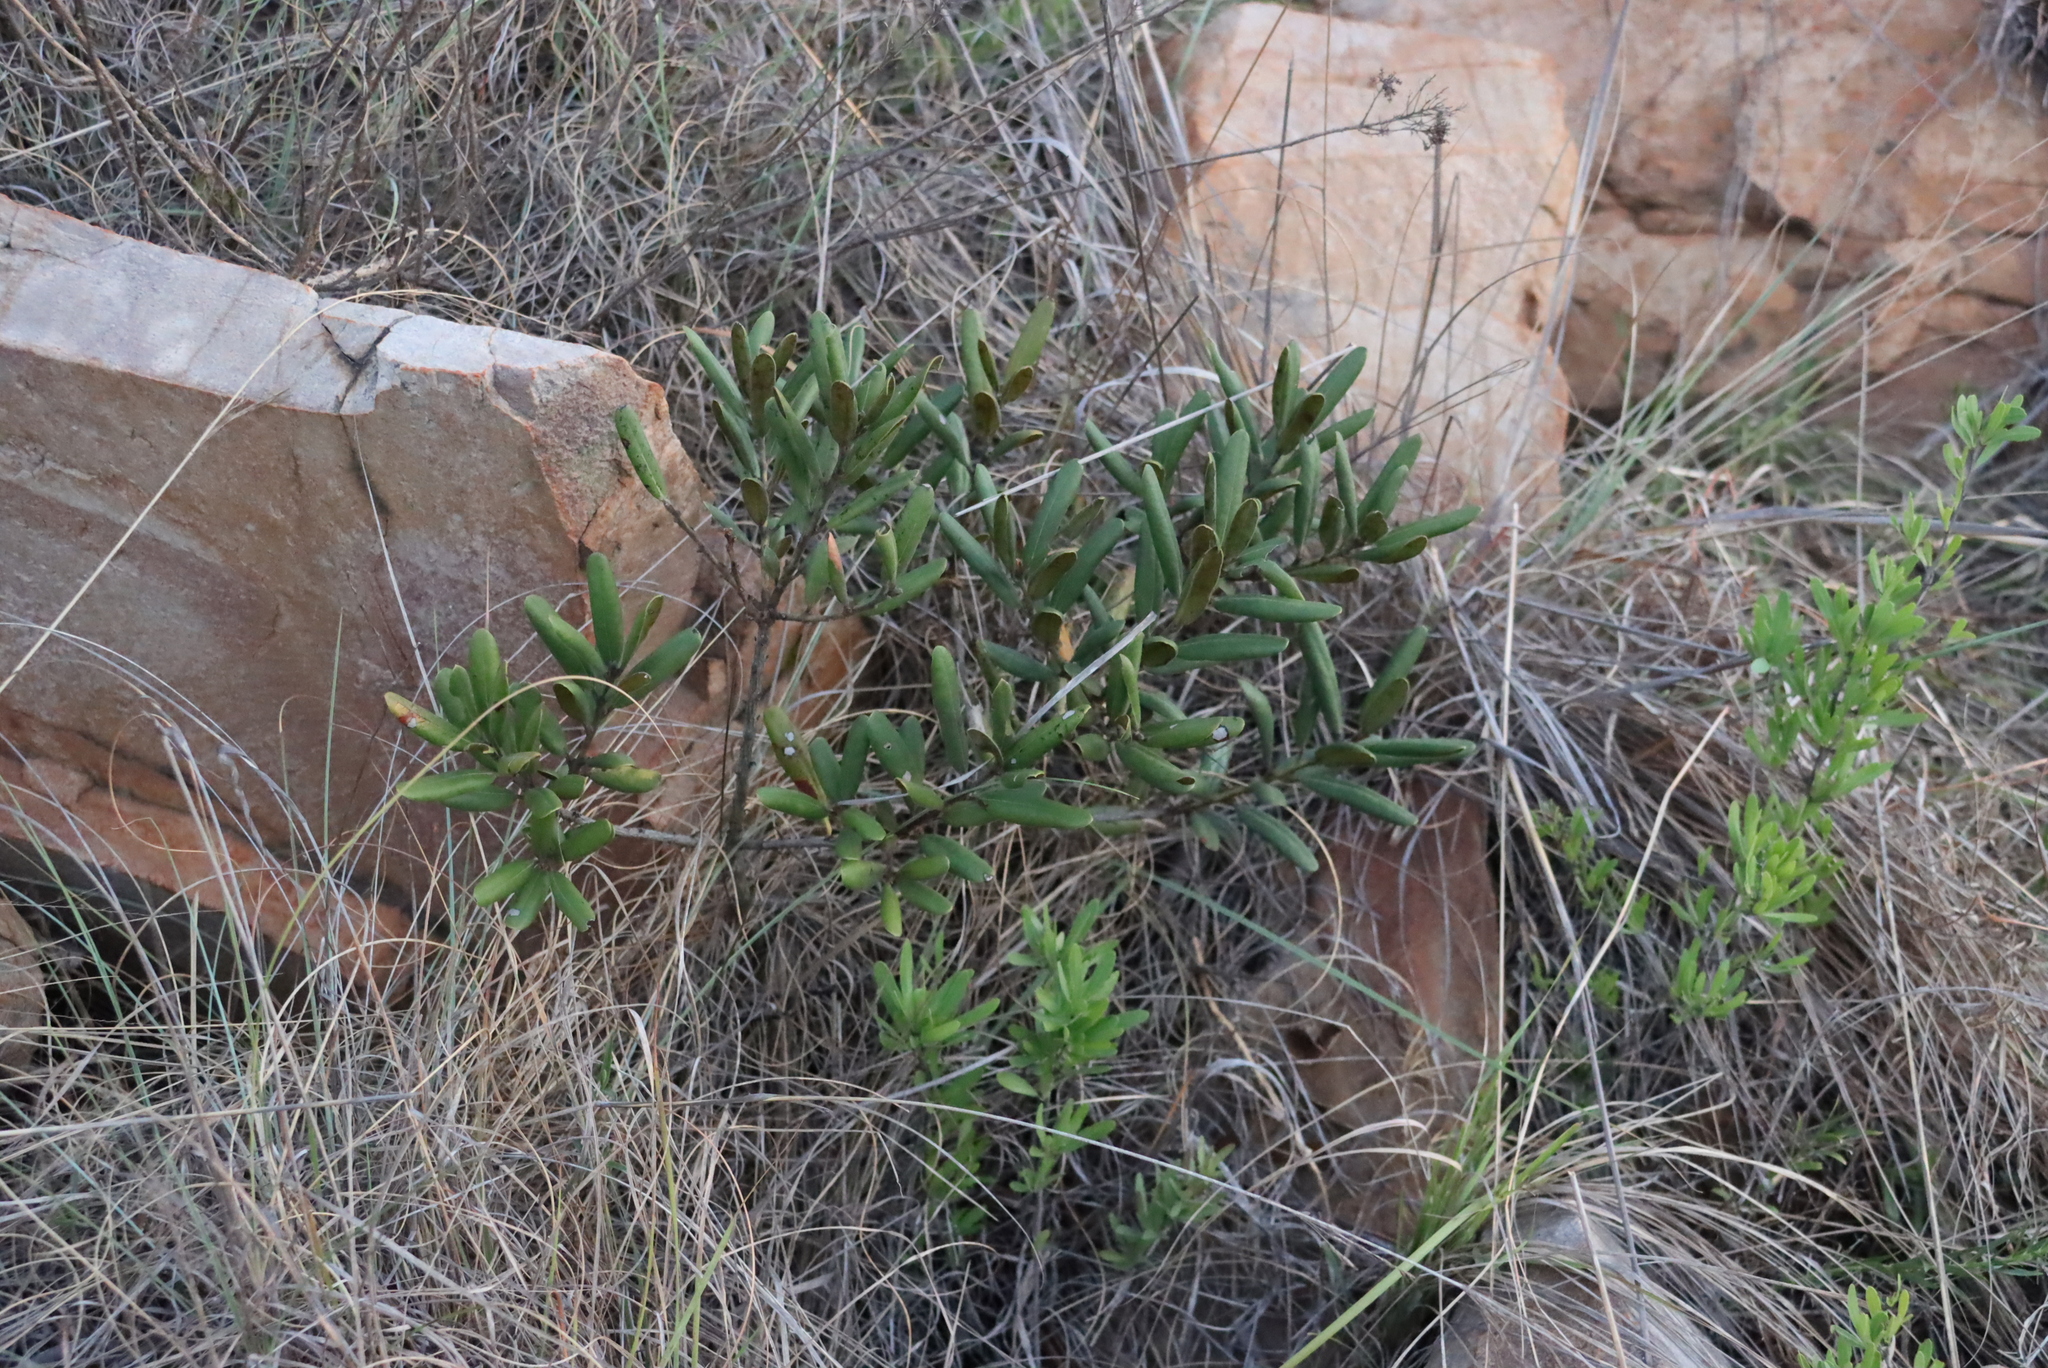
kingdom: Plantae
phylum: Tracheophyta
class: Magnoliopsida
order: Ericales
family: Ebenaceae
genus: Euclea
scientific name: Euclea natalensis
